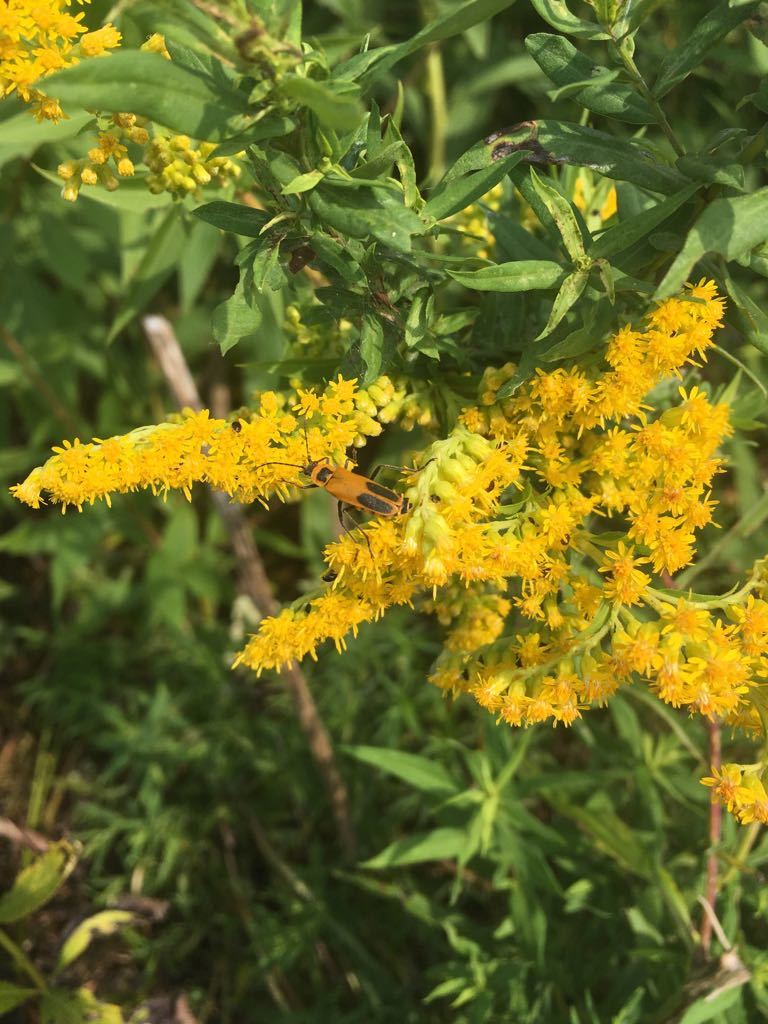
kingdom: Animalia
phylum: Arthropoda
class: Insecta
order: Coleoptera
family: Cantharidae
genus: Chauliognathus
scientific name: Chauliognathus pensylvanicus
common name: Goldenrod soldier beetle
